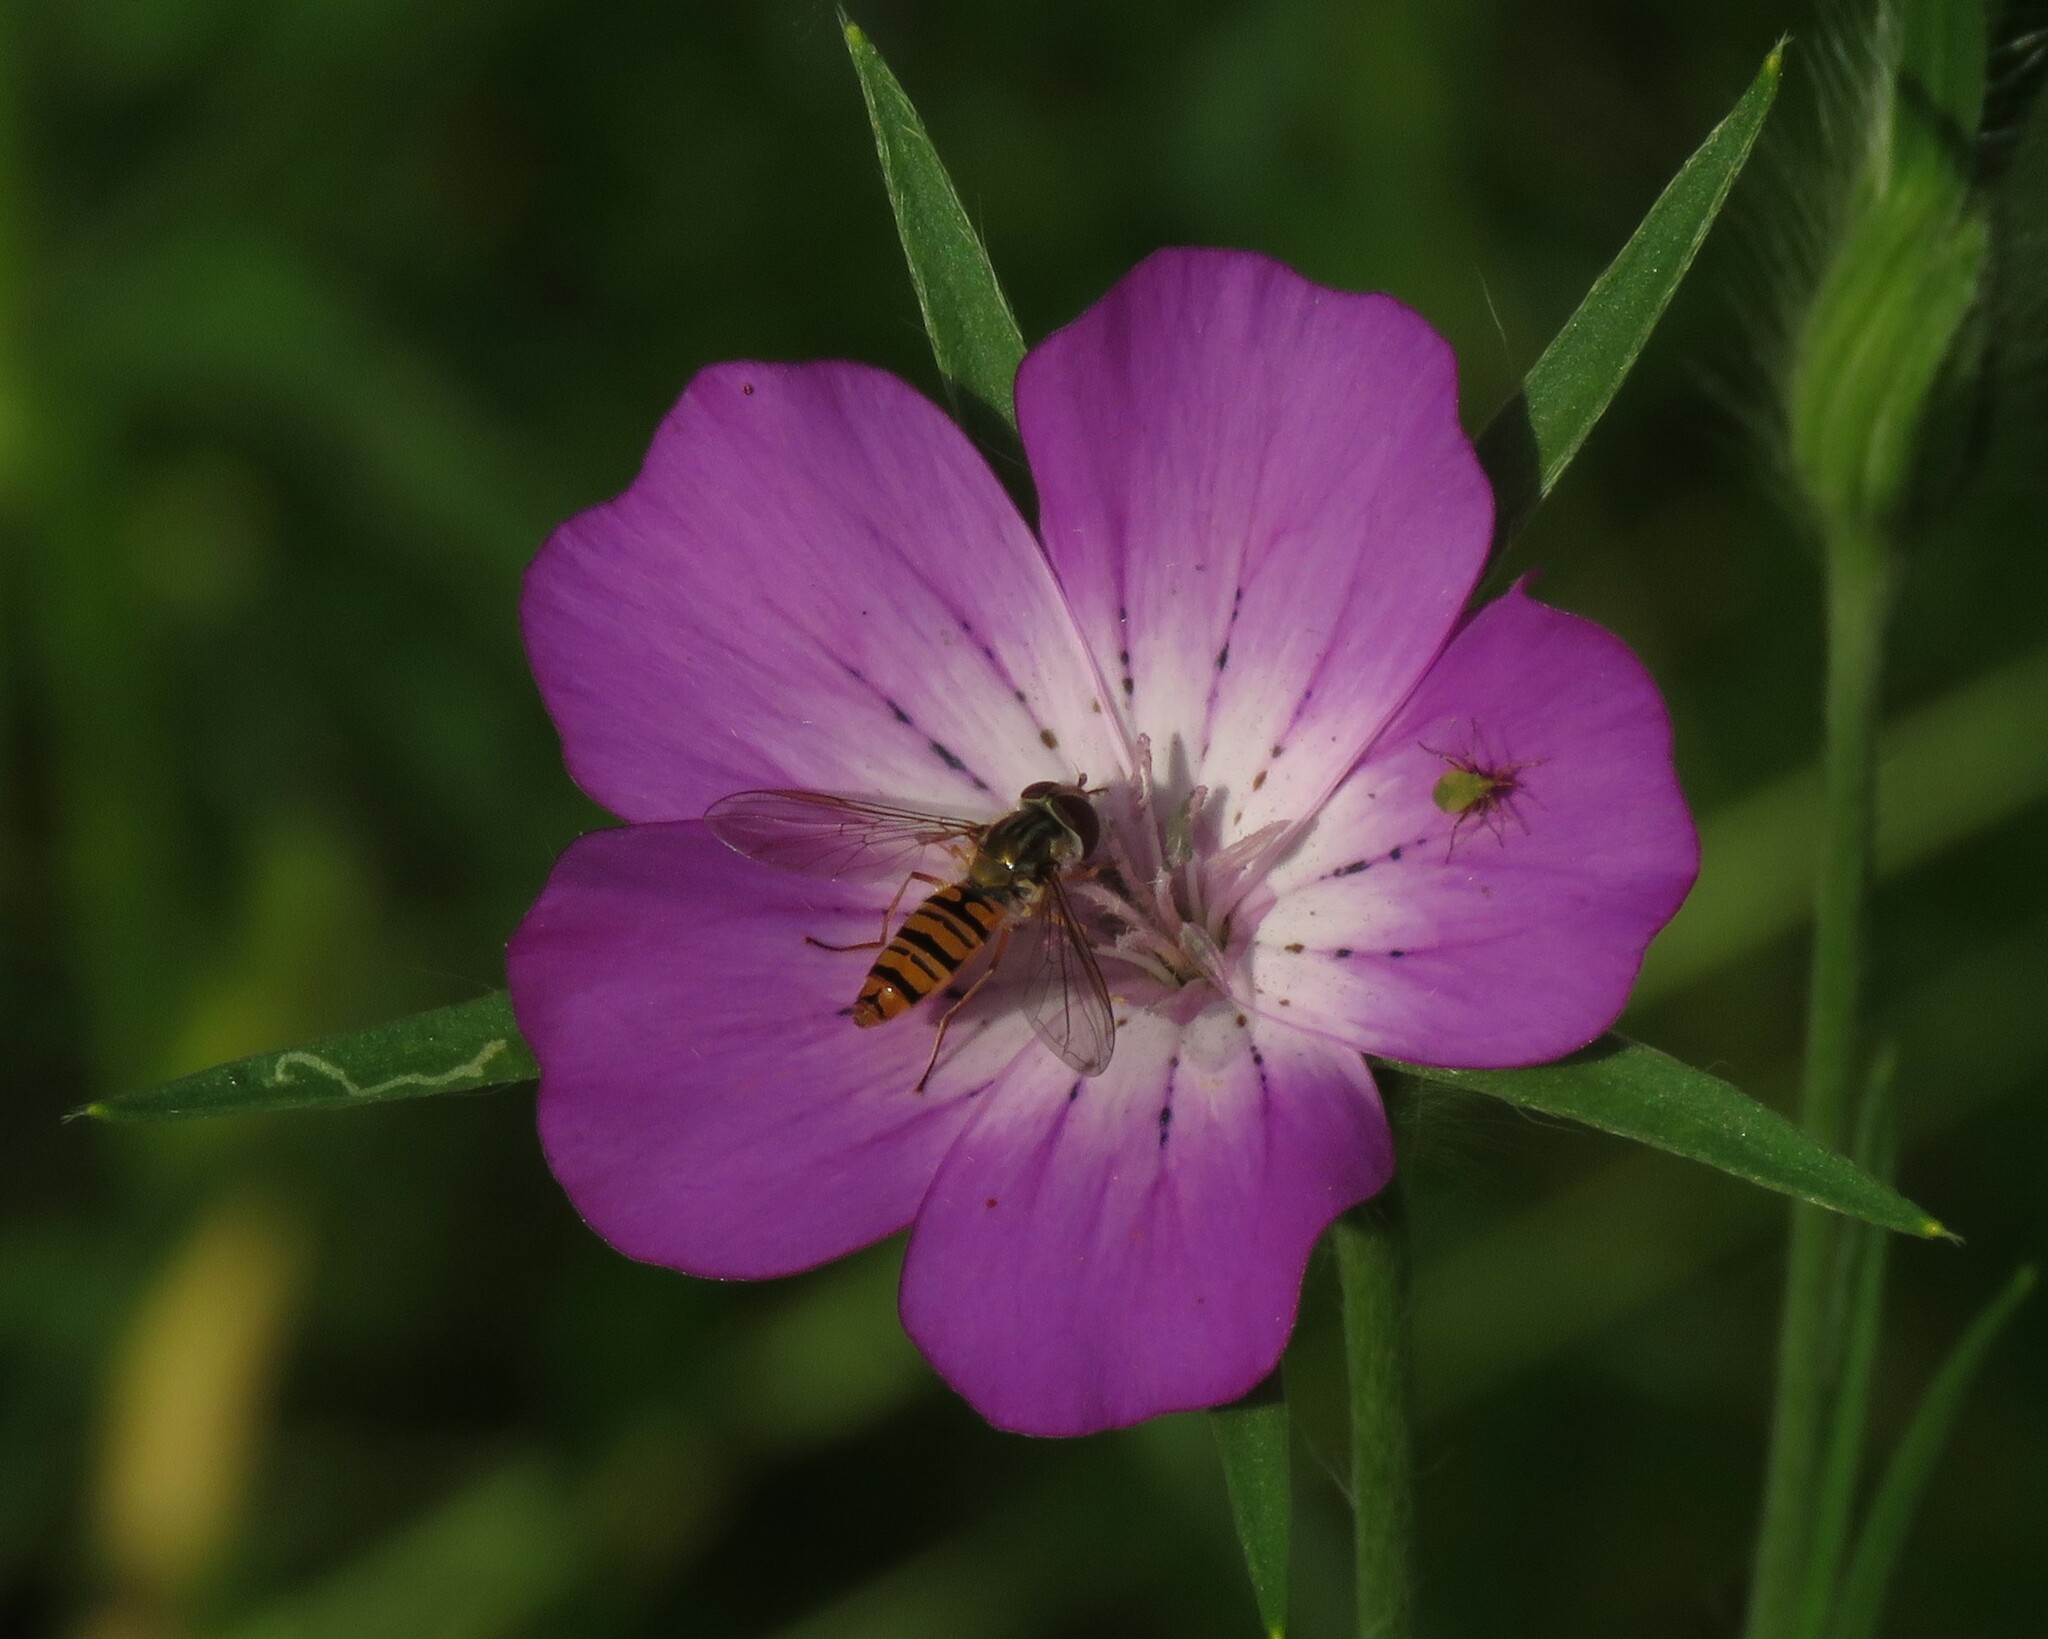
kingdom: Animalia
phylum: Arthropoda
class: Insecta
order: Diptera
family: Syrphidae
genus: Episyrphus
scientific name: Episyrphus balteatus
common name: Marmalade hoverfly
